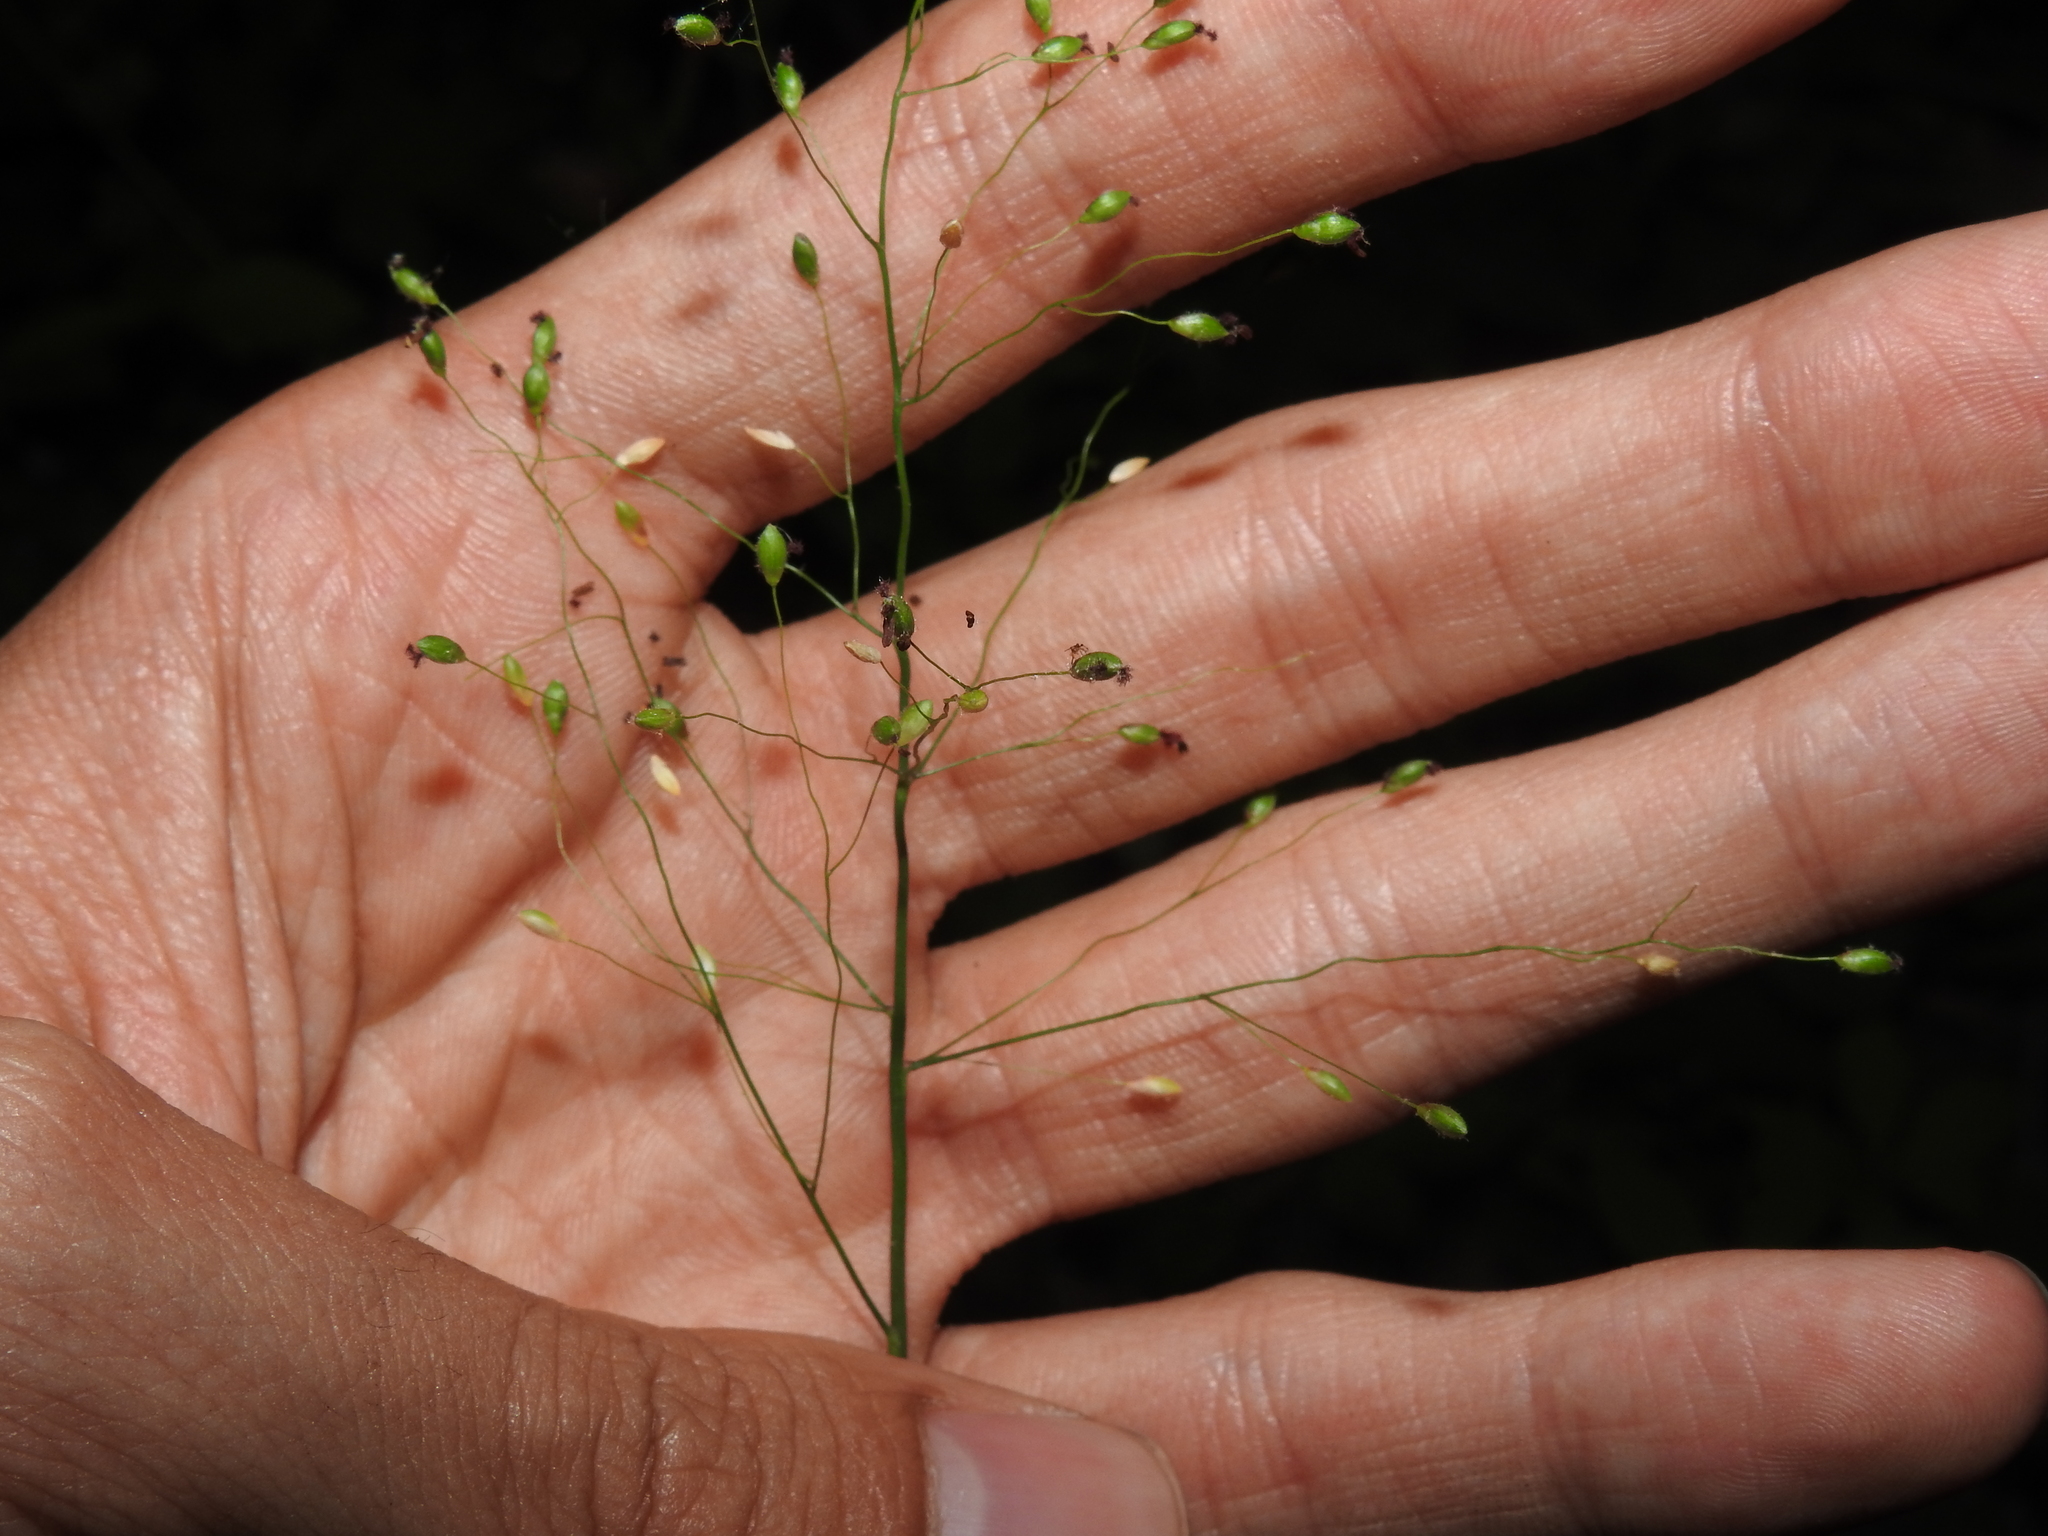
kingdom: Plantae
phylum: Tracheophyta
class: Liliopsida
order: Poales
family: Poaceae
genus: Dichanthelium
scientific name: Dichanthelium commutatum
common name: Variable witchgrass
